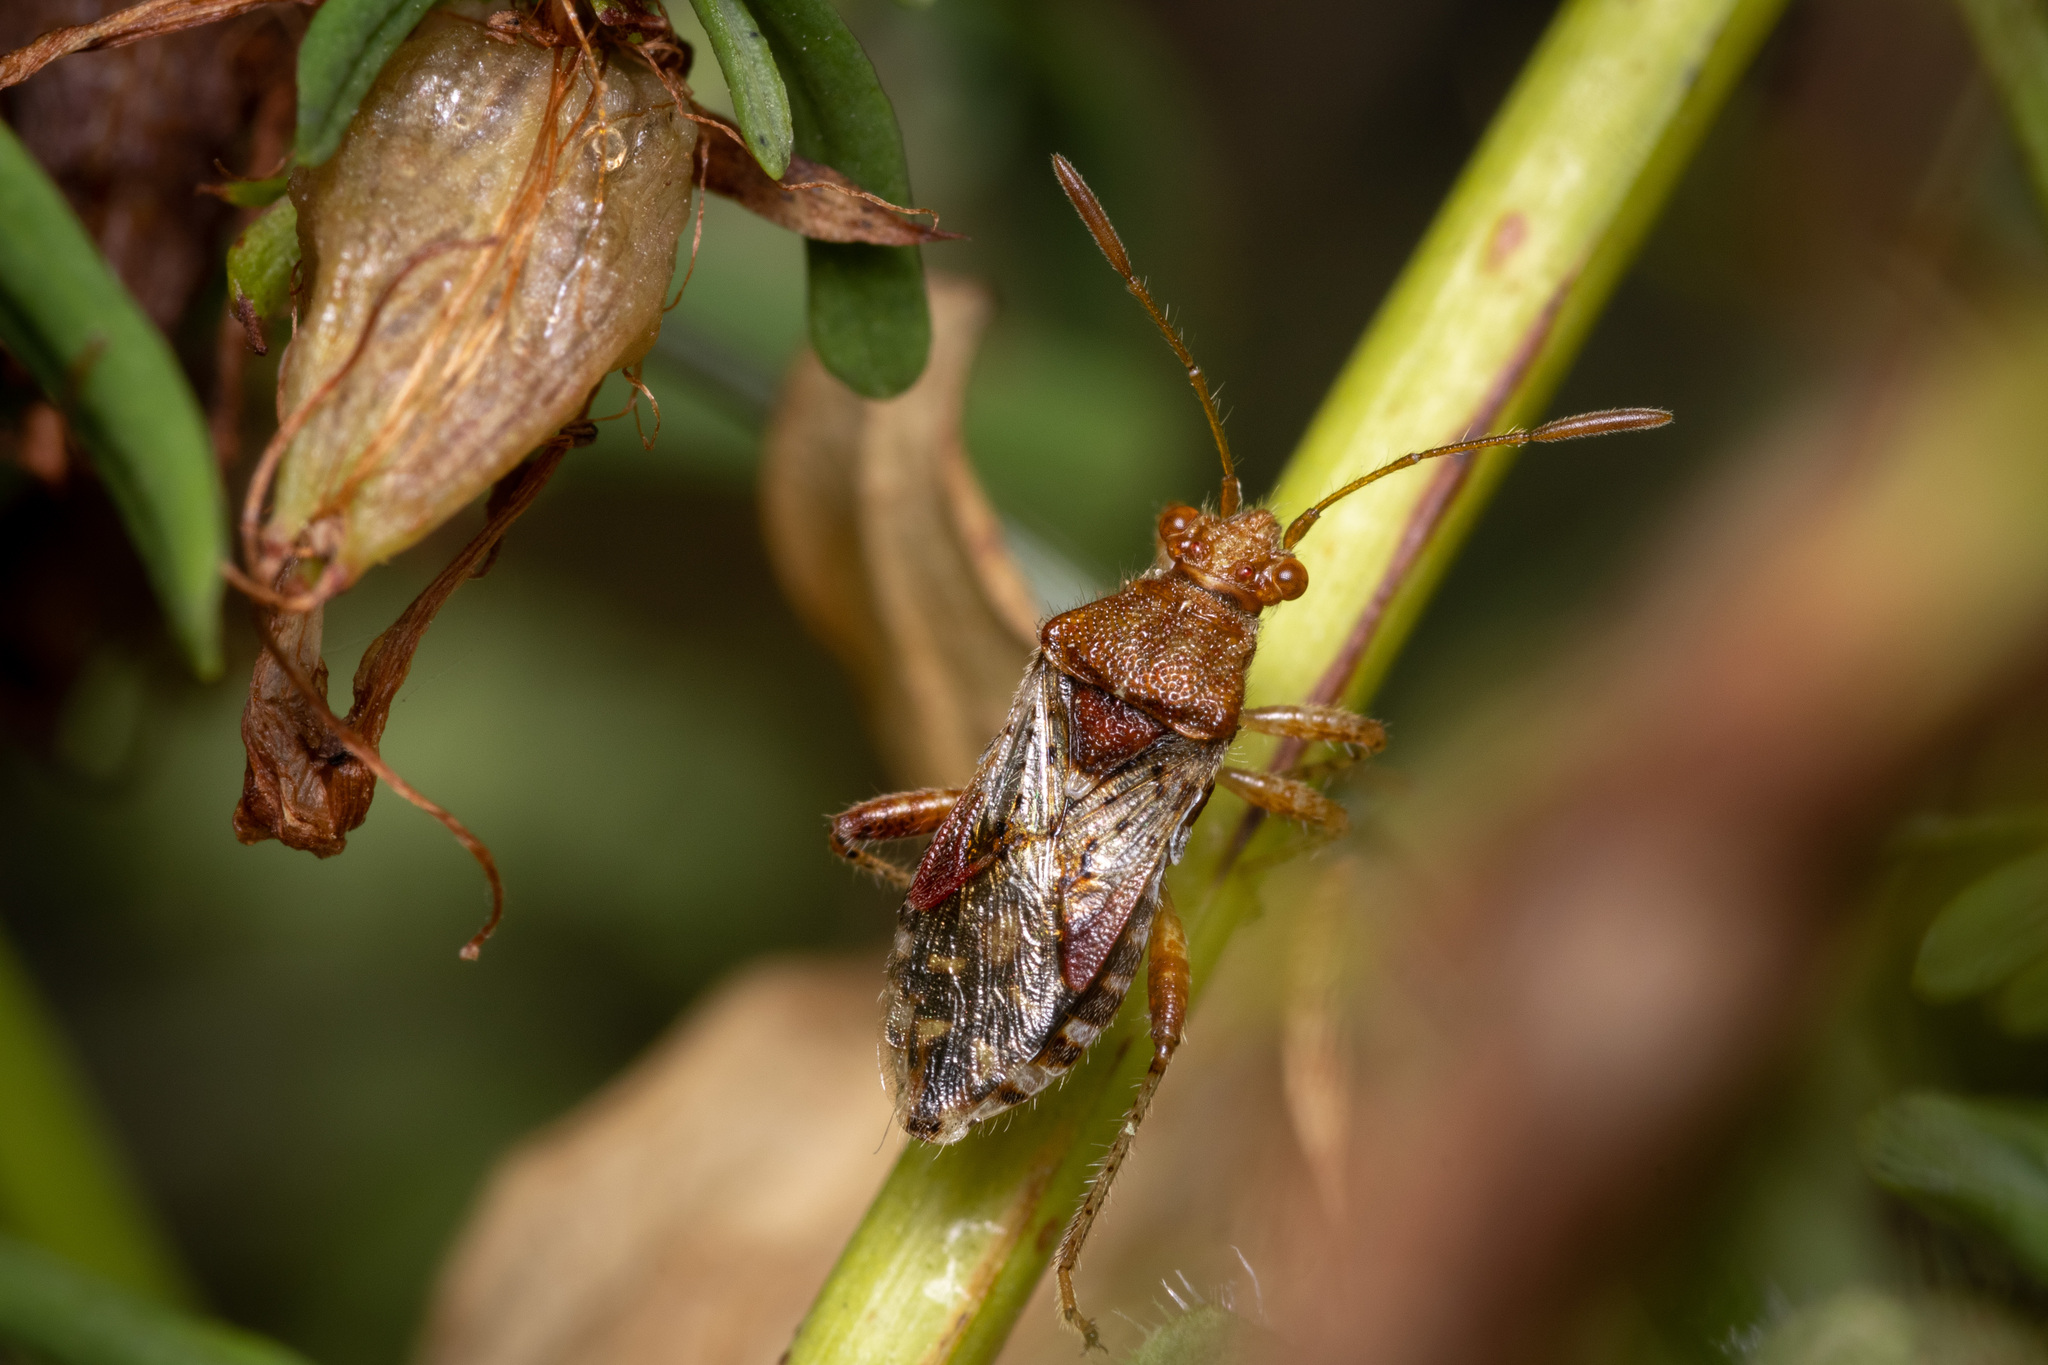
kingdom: Animalia
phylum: Arthropoda
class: Insecta
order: Hemiptera
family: Rhopalidae
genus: Rhopalus
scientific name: Rhopalus subrufus
